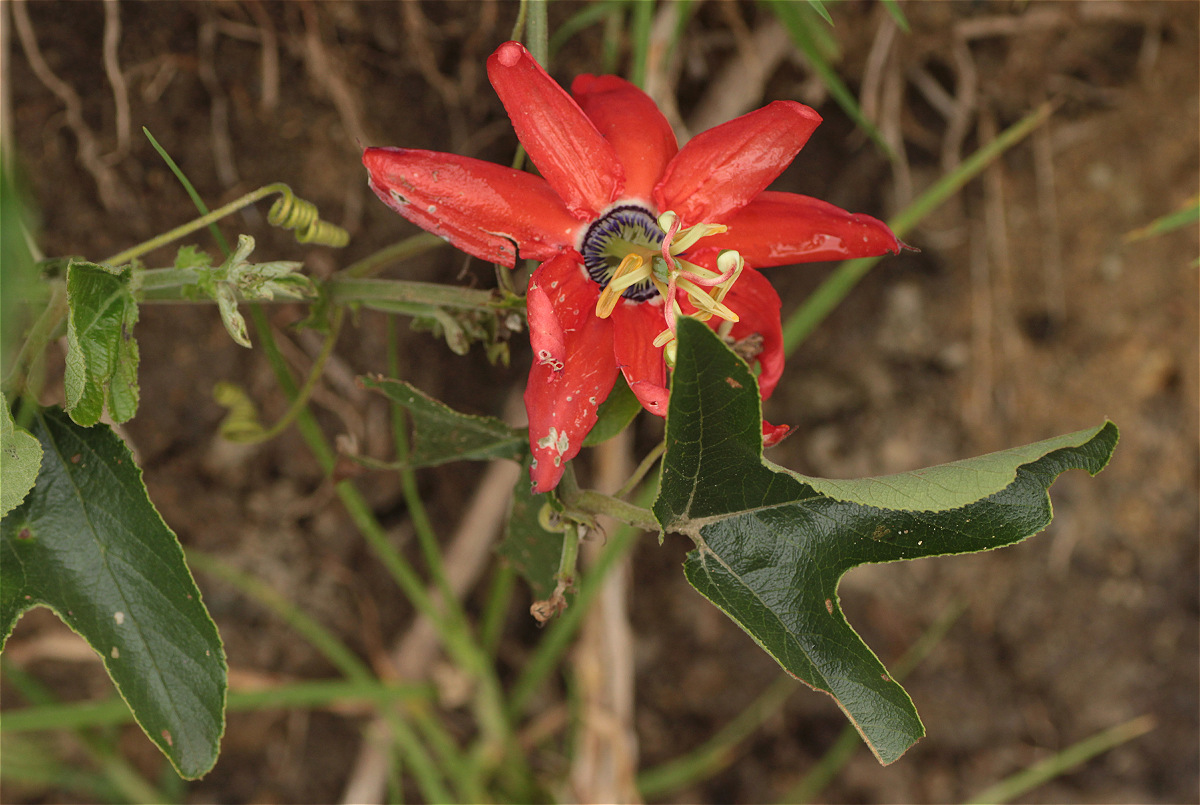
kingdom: Plantae
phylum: Tracheophyta
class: Magnoliopsida
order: Malpighiales
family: Passifloraceae
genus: Passiflora
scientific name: Passiflora manicata
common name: Red passionflower
